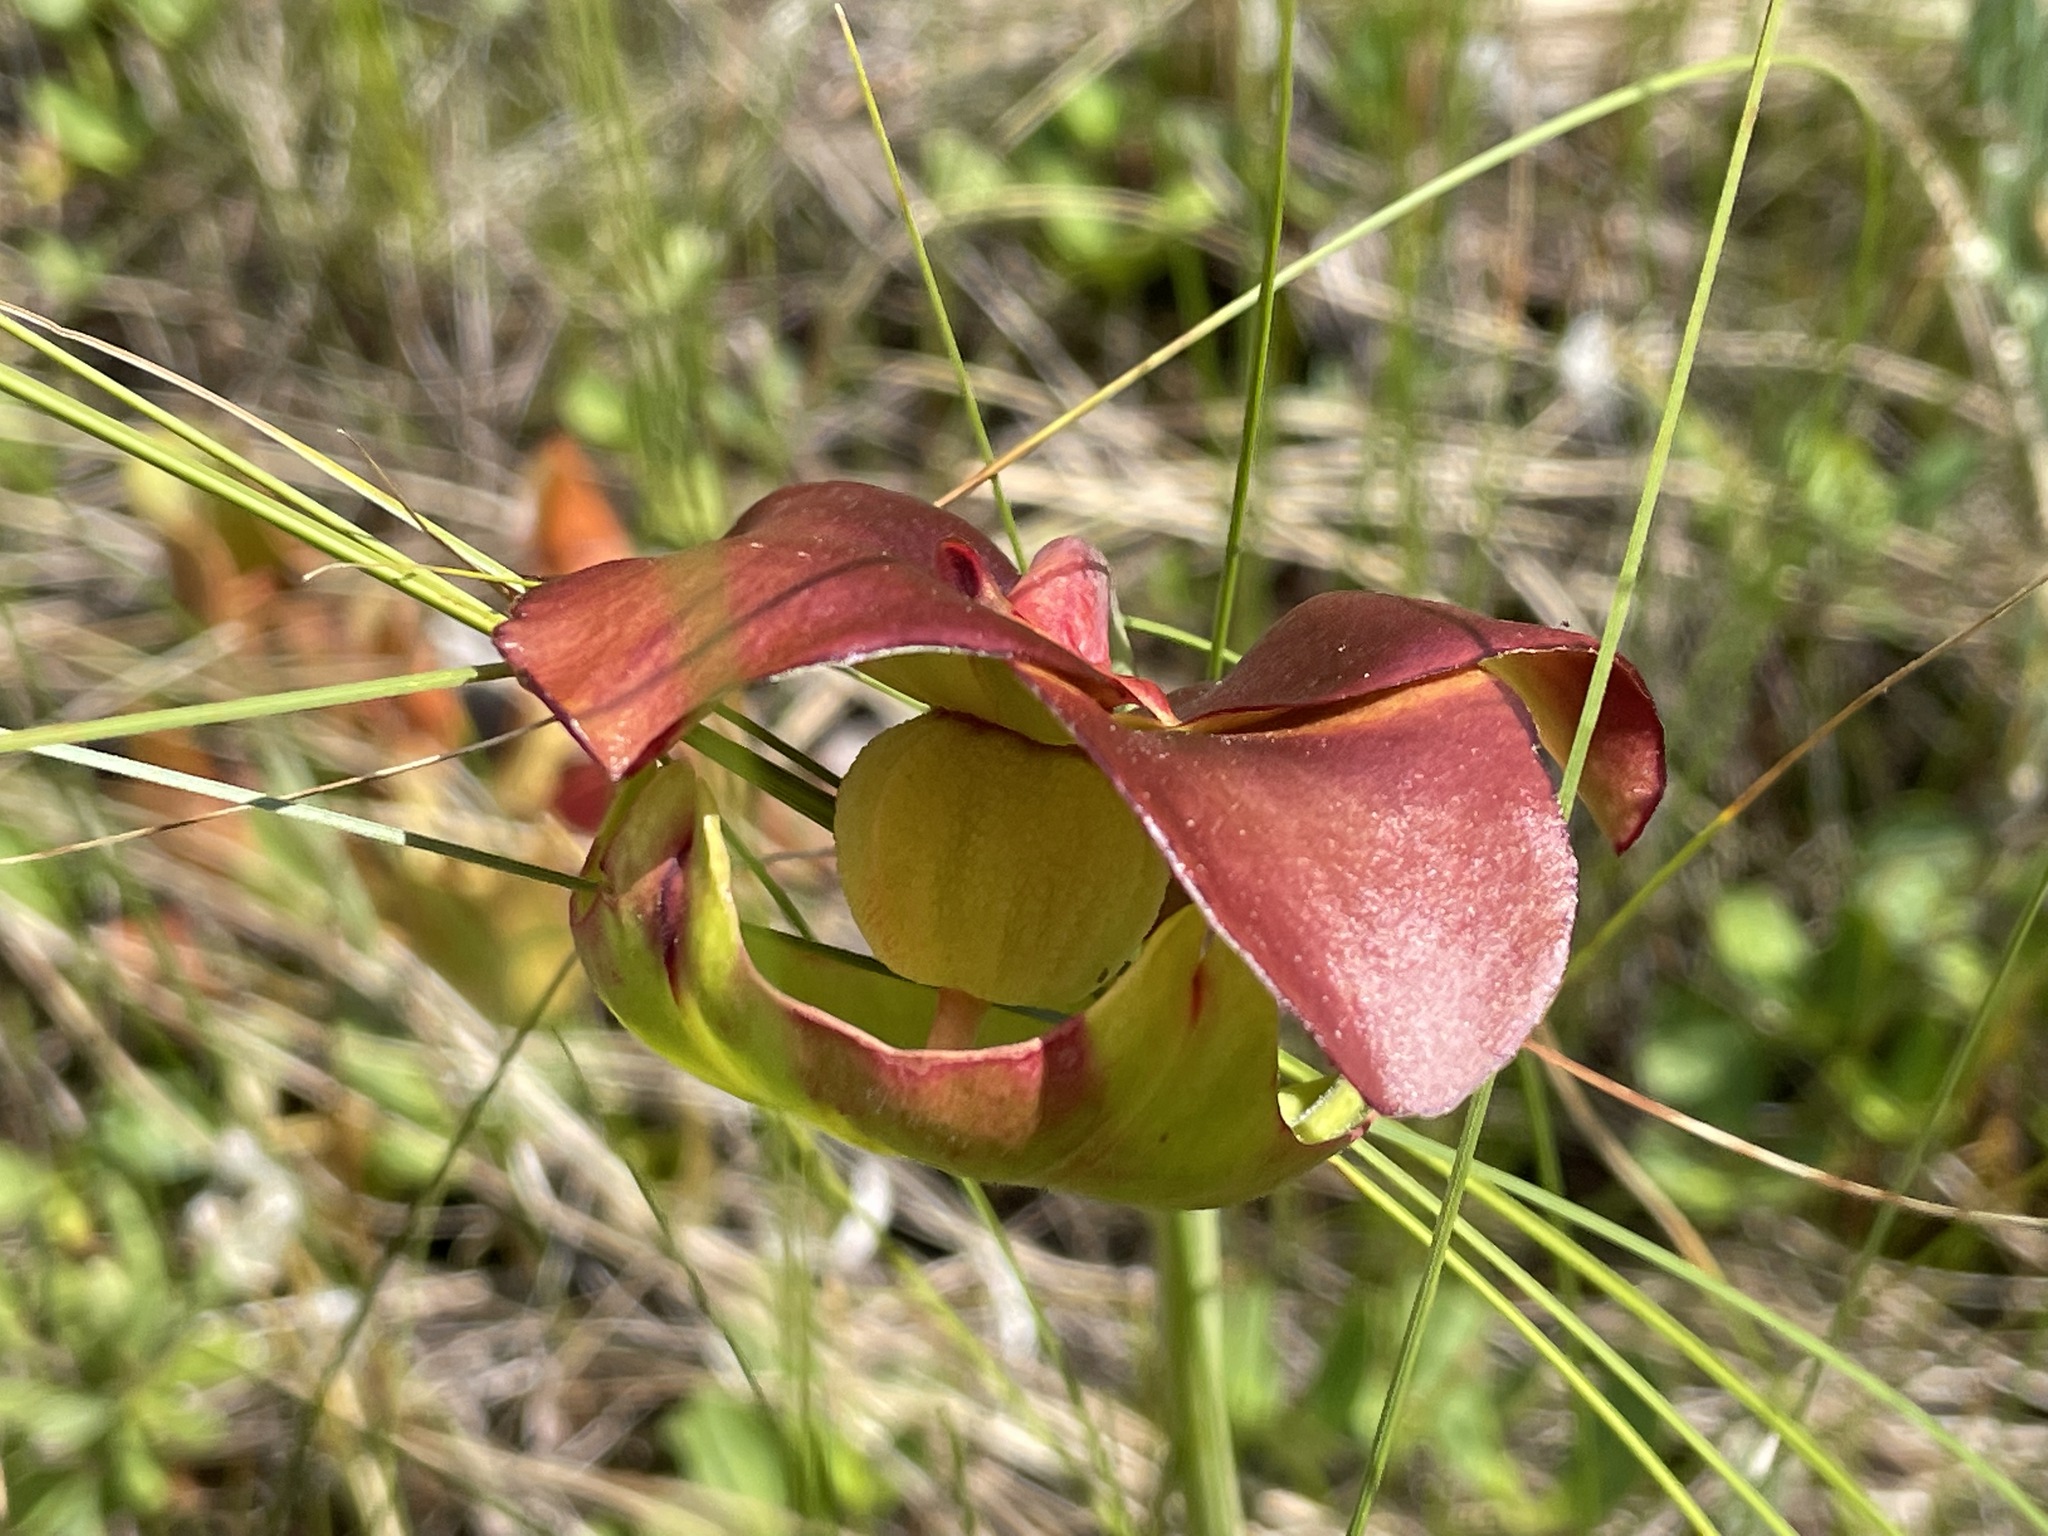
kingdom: Plantae
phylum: Tracheophyta
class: Magnoliopsida
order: Ericales
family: Sarraceniaceae
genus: Sarracenia
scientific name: Sarracenia purpurea
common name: Pitcherplant
